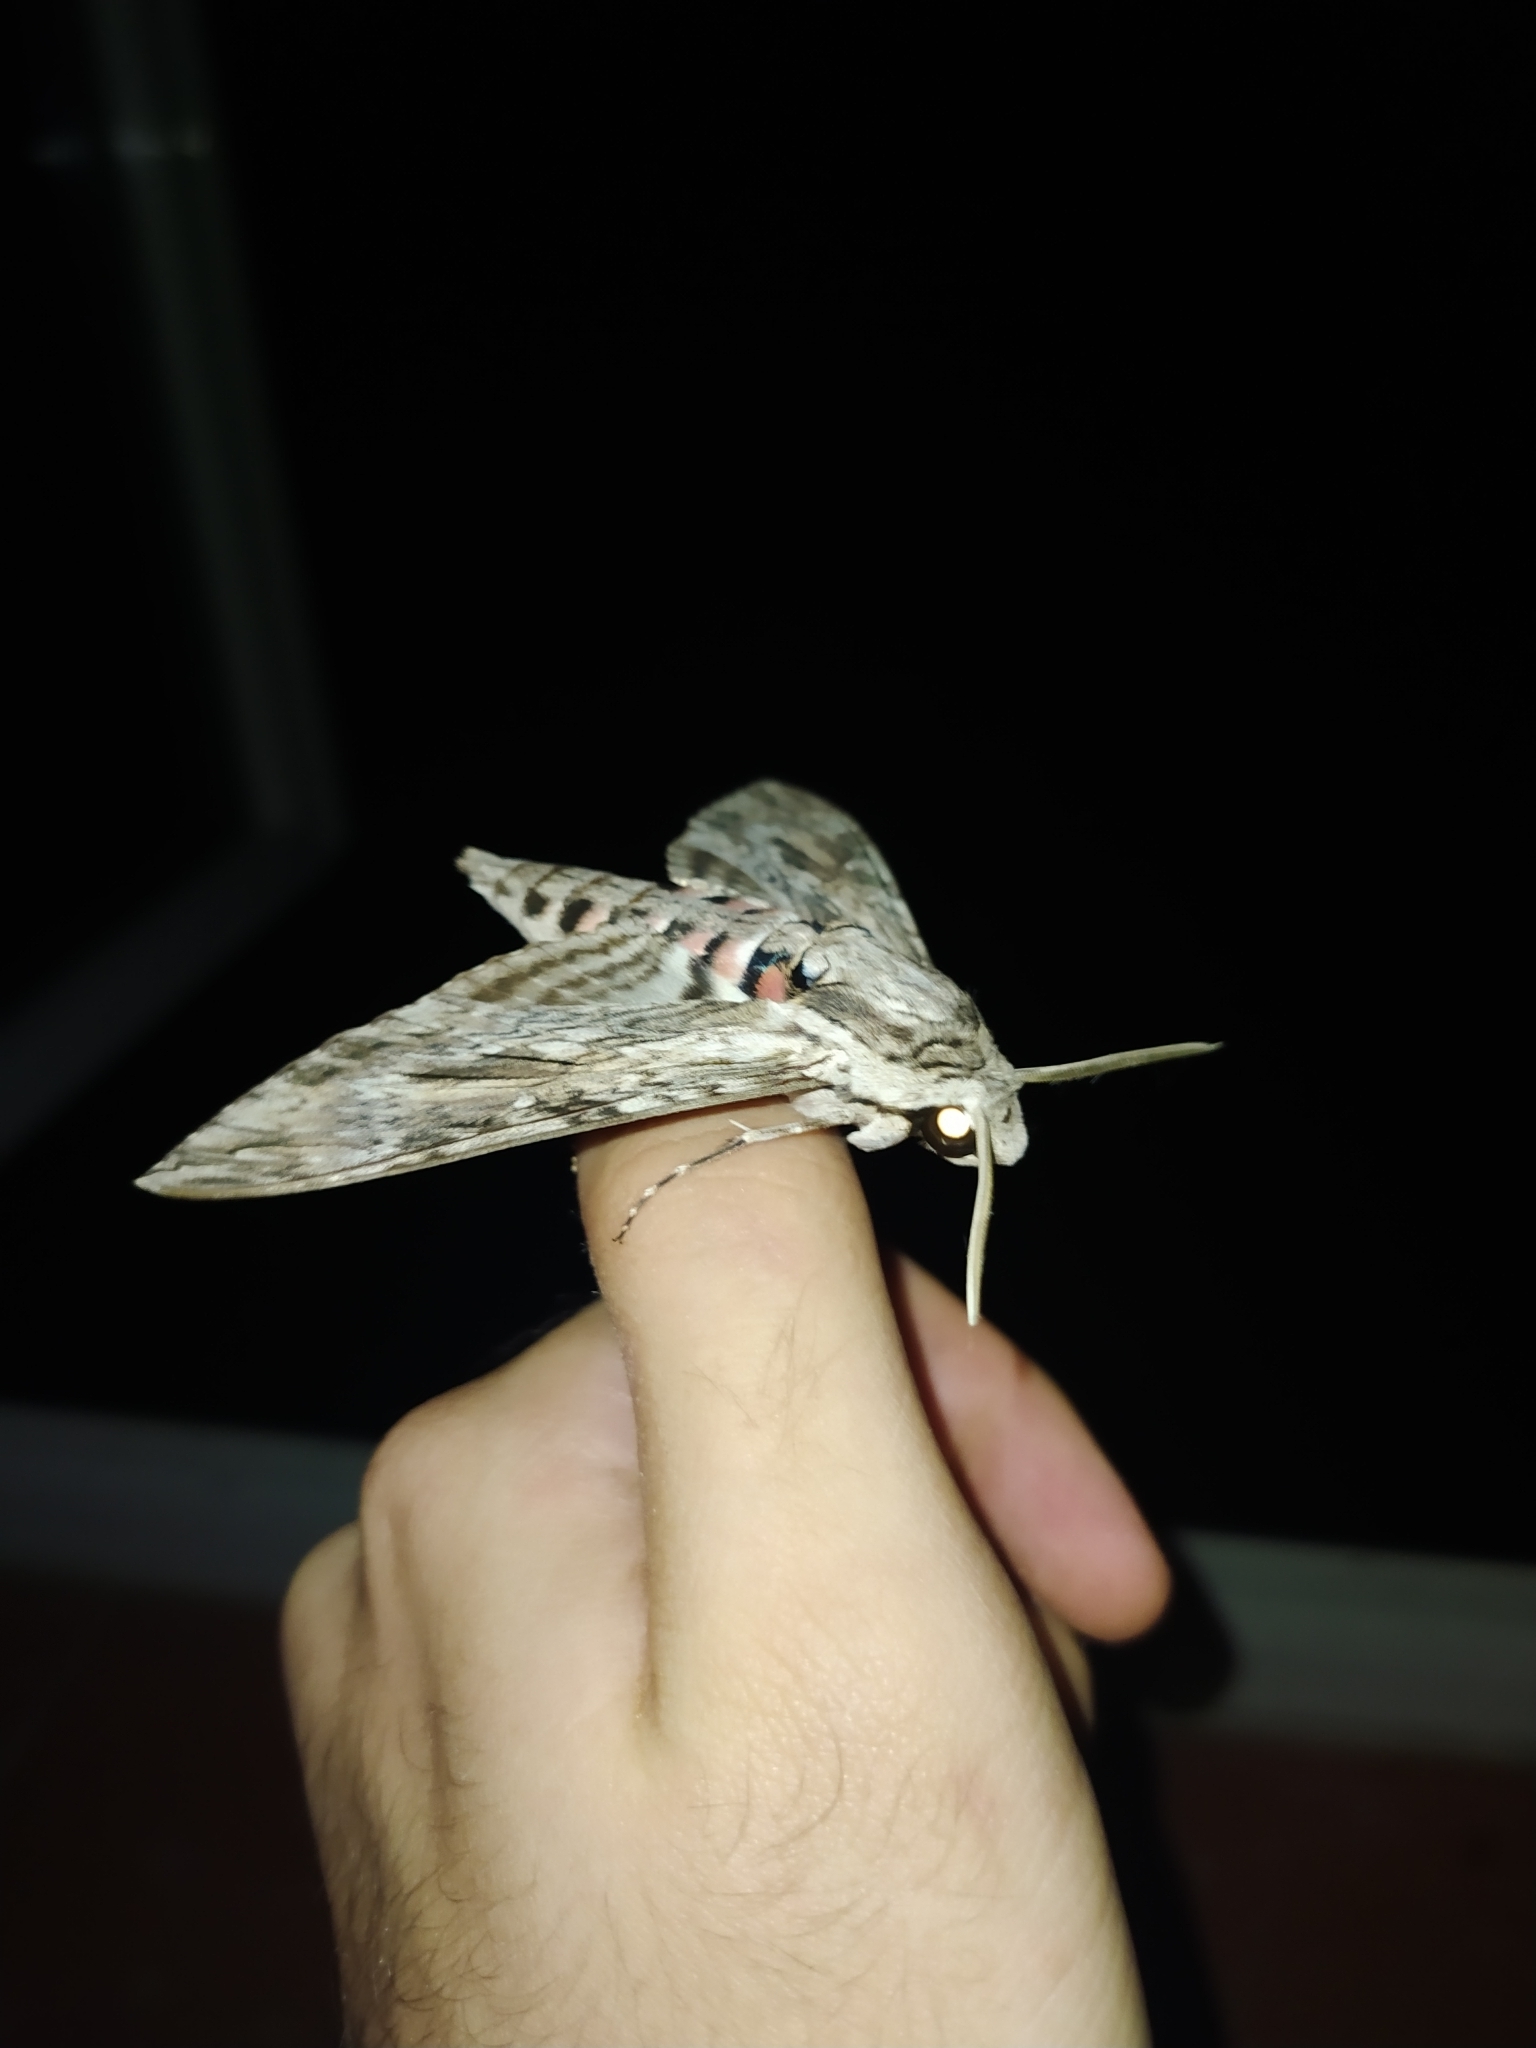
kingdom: Animalia
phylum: Arthropoda
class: Insecta
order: Lepidoptera
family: Sphingidae
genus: Agrius
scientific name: Agrius convolvuli
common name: Convolvulus hawkmoth
